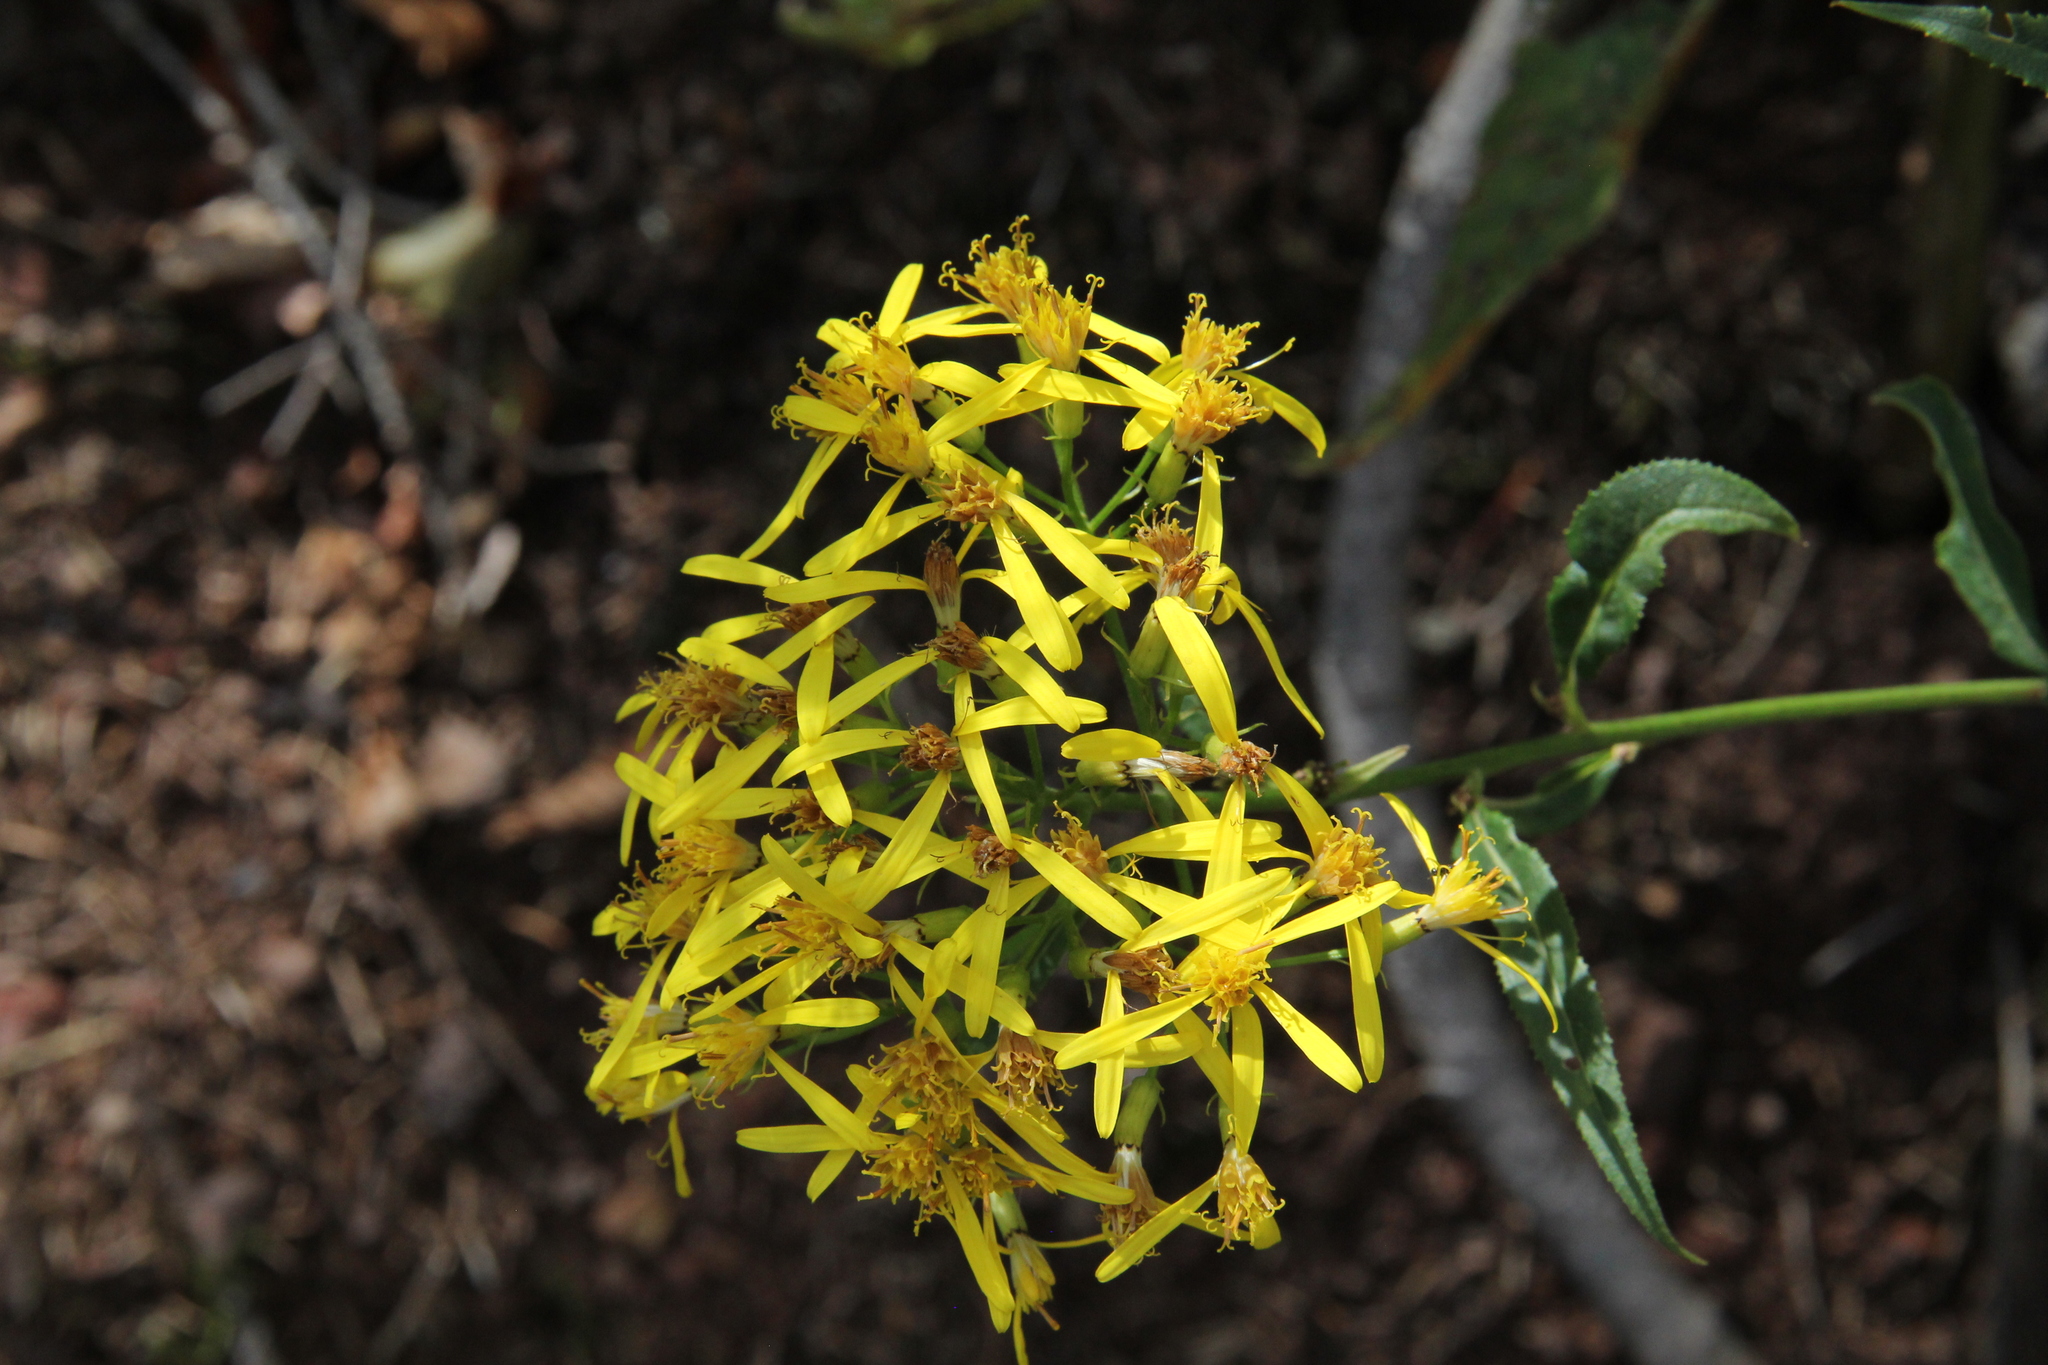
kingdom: Plantae
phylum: Tracheophyta
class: Magnoliopsida
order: Asterales
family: Asteraceae
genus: Senecio
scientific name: Senecio ovatus
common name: Wood ragwort
